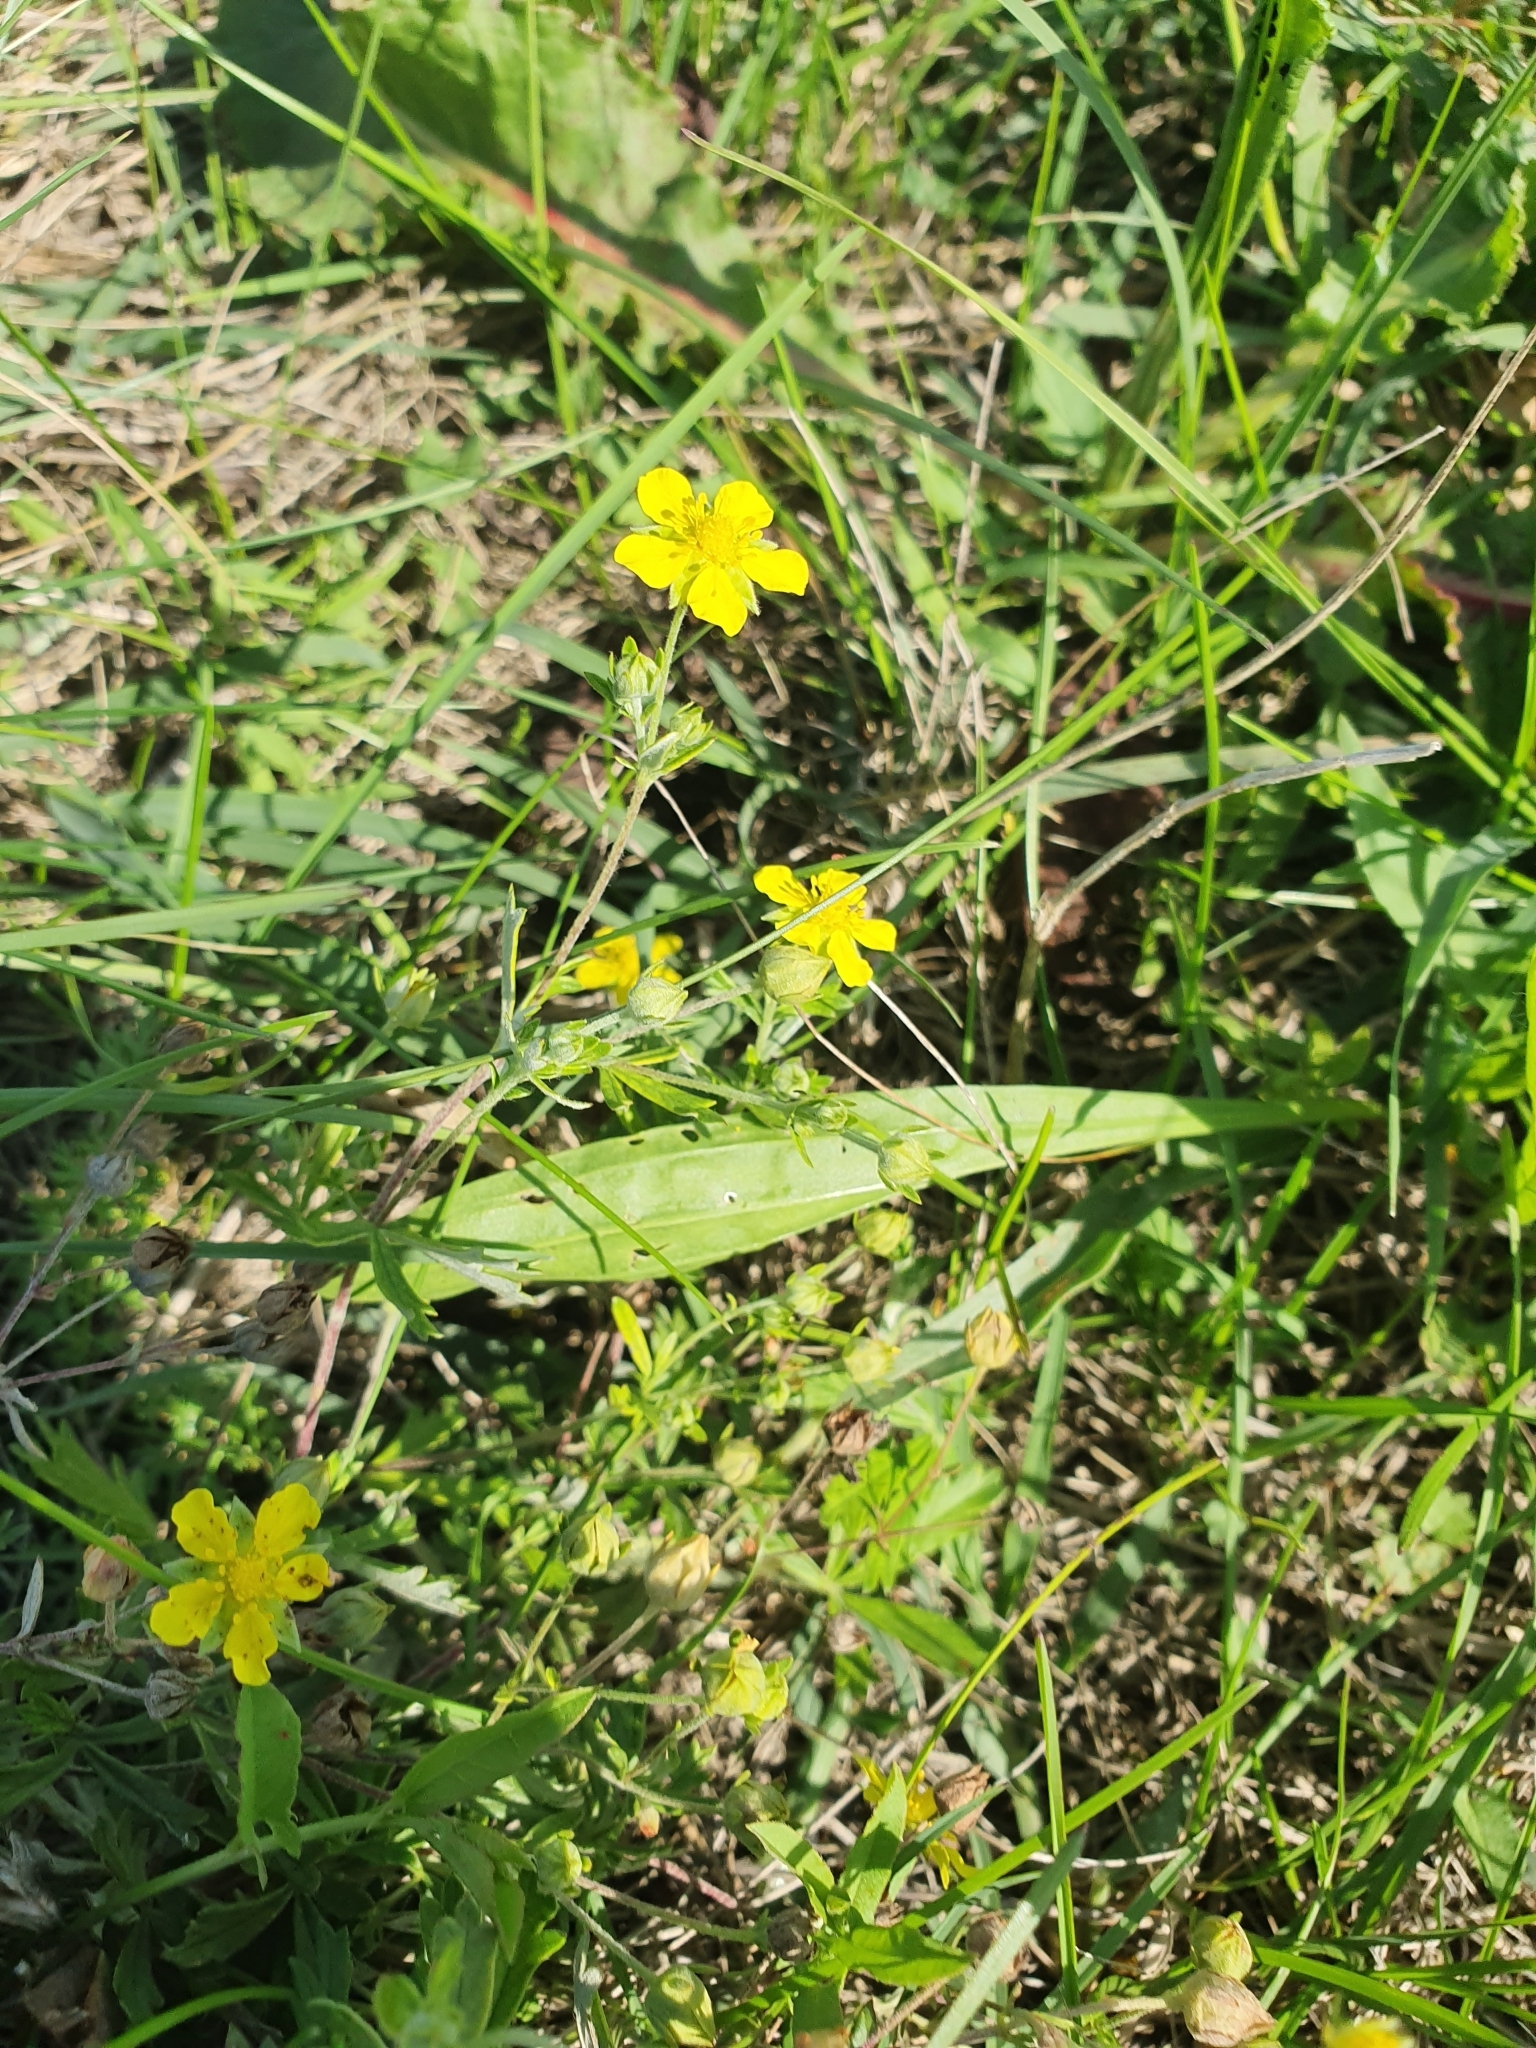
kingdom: Plantae
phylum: Tracheophyta
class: Magnoliopsida
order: Rosales
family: Rosaceae
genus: Potentilla
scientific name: Potentilla argentea
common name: Hoary cinquefoil
